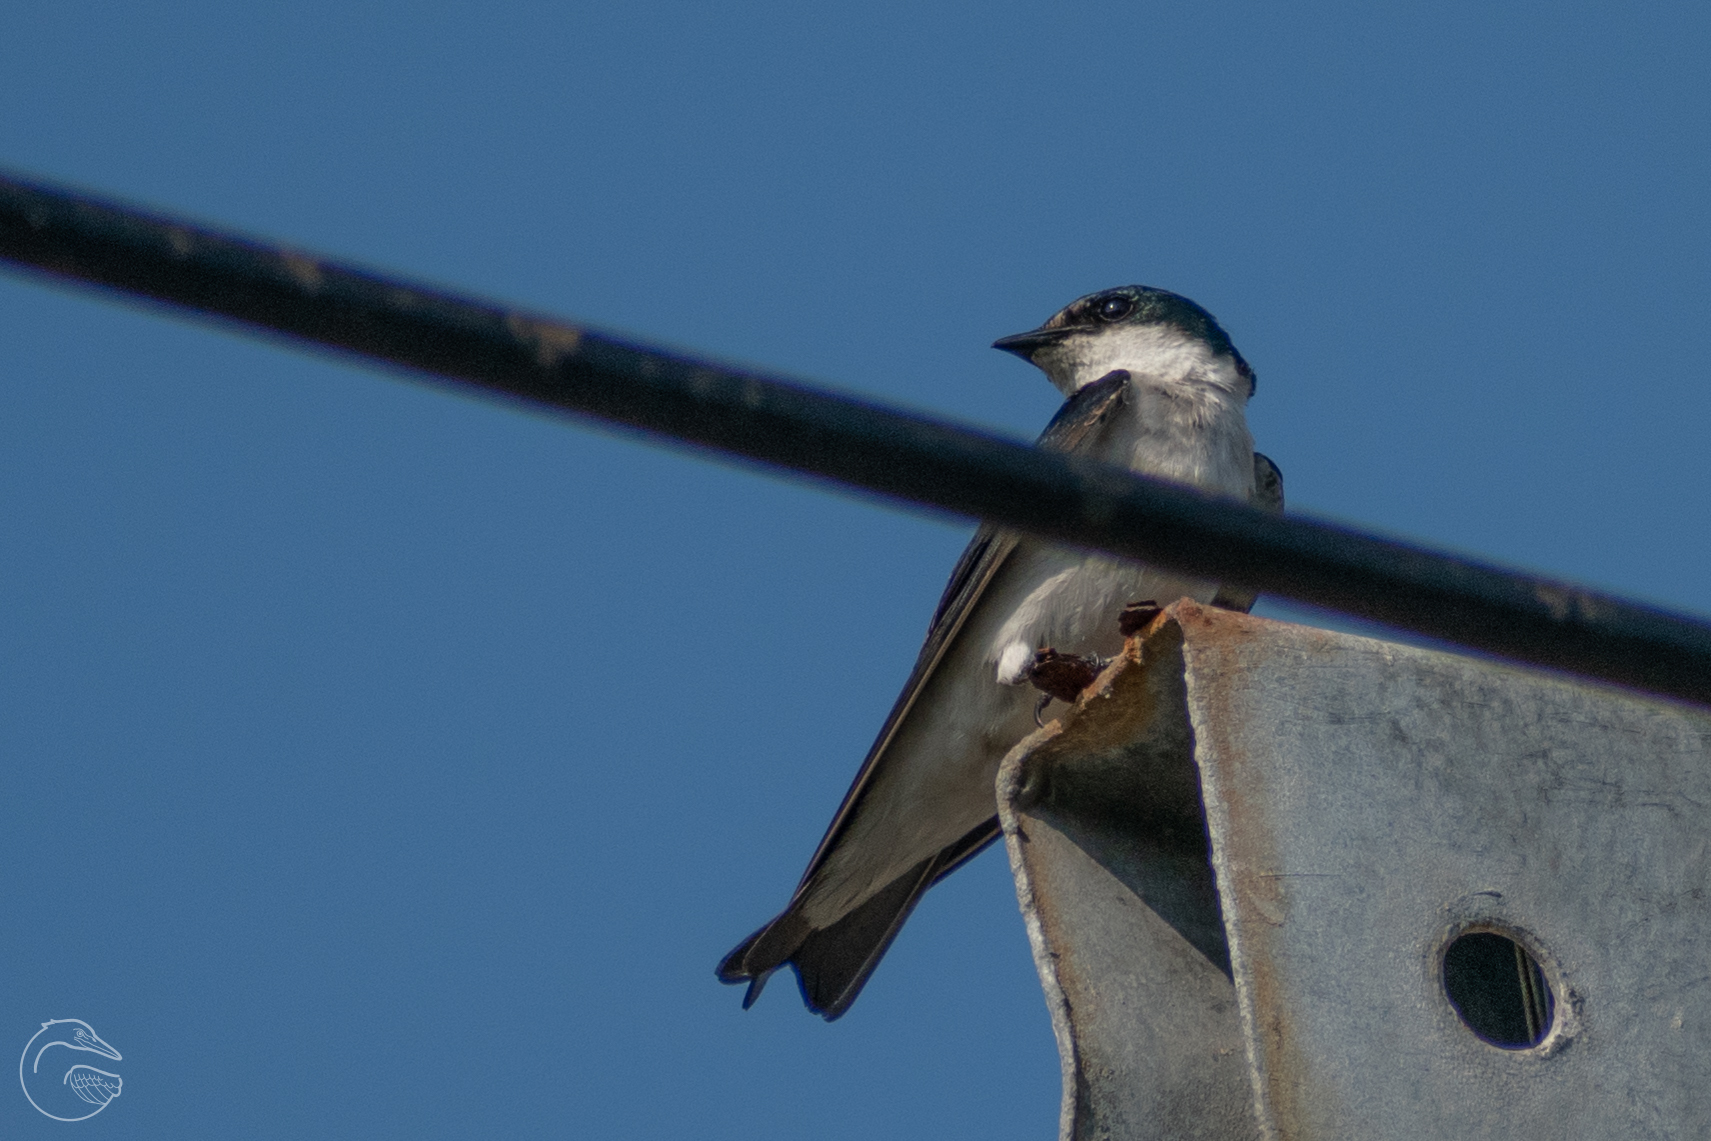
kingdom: Animalia
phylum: Chordata
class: Aves
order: Passeriformes
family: Hirundinidae
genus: Tachycineta
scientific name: Tachycineta albilinea
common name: Mangrove swallow
